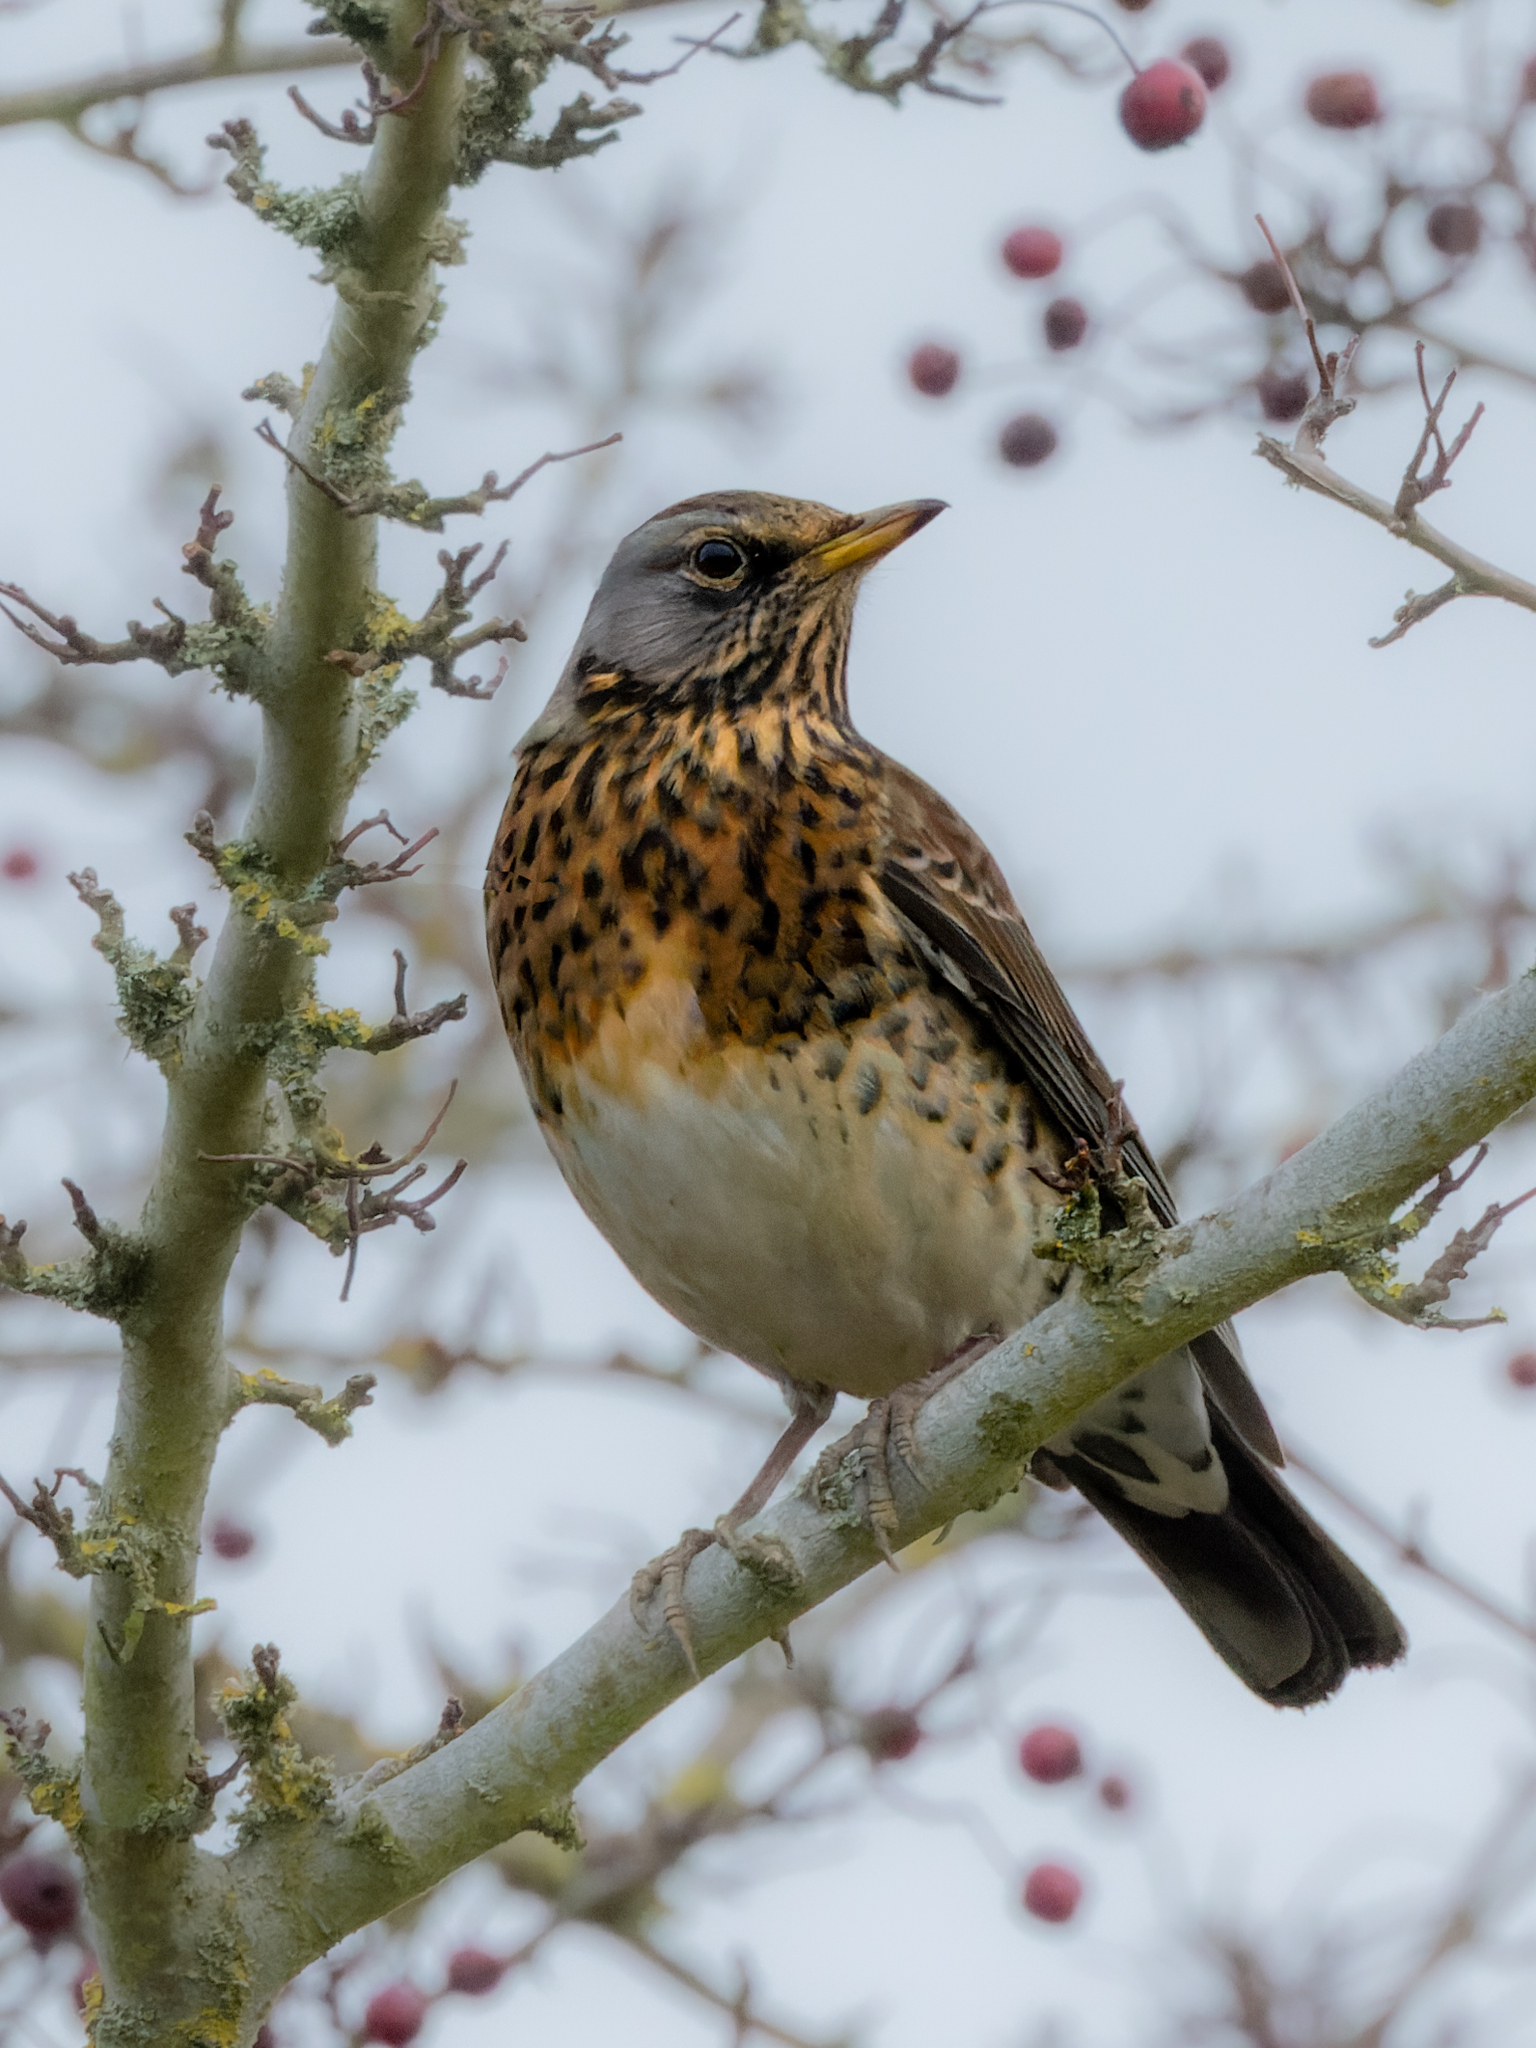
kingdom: Animalia
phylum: Chordata
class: Aves
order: Passeriformes
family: Turdidae
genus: Turdus
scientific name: Turdus pilaris
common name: Fieldfare
